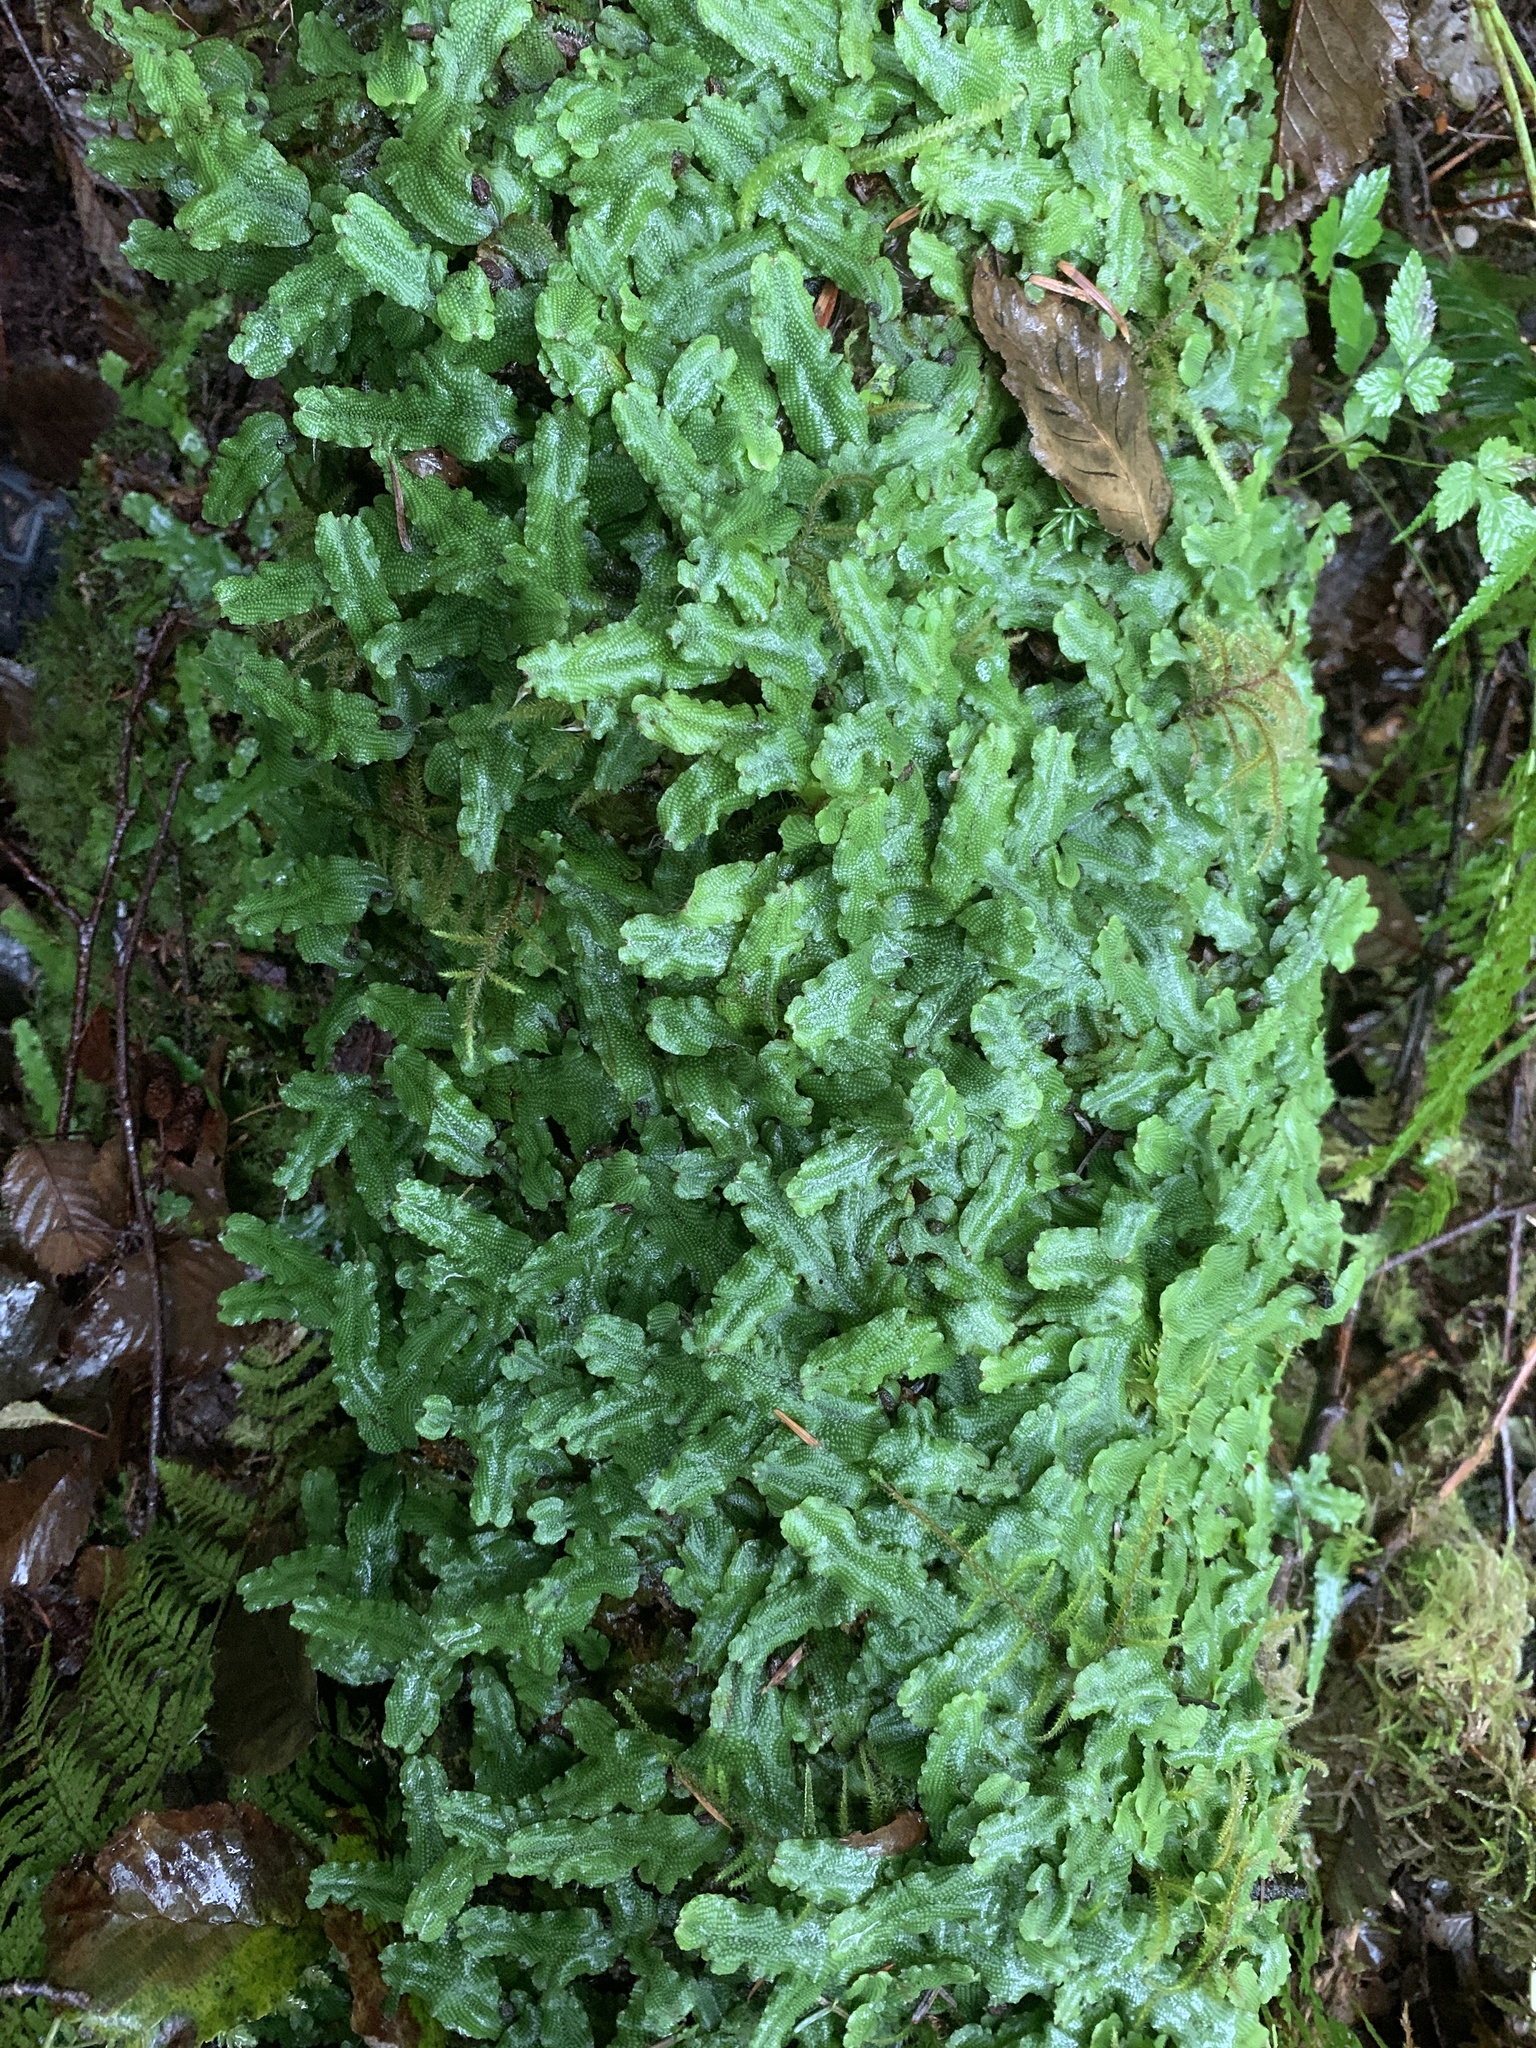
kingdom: Plantae
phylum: Marchantiophyta
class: Marchantiopsida
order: Marchantiales
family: Conocephalaceae
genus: Conocephalum
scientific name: Conocephalum salebrosum
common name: Cat-tongue liverwort
